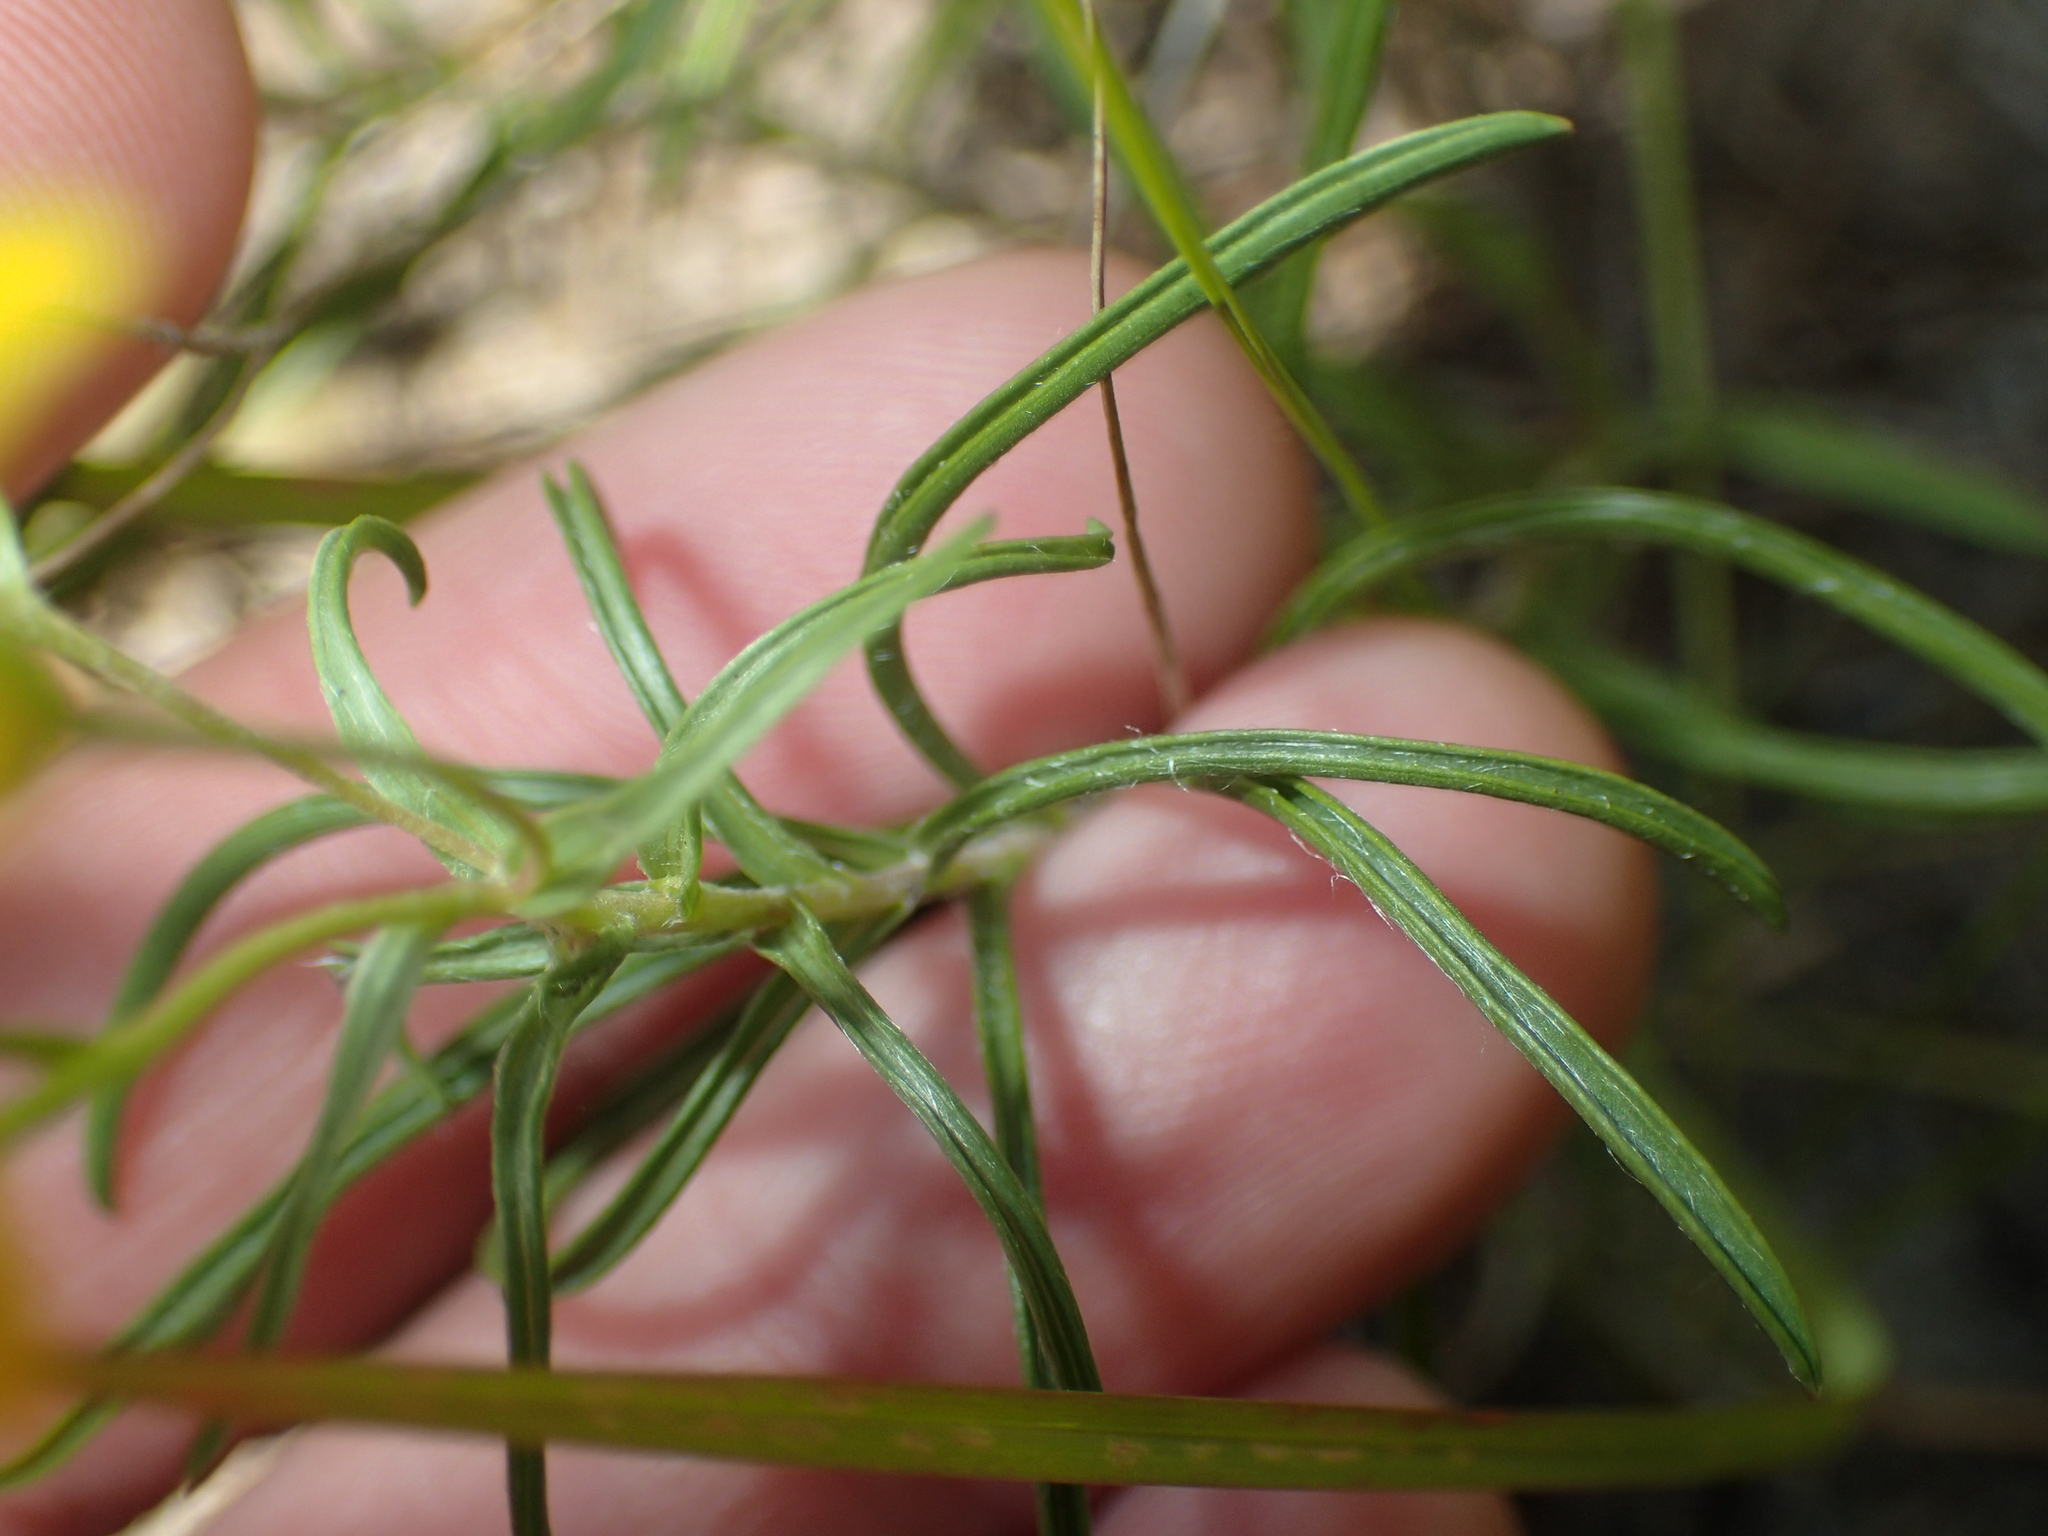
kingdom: Plantae
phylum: Tracheophyta
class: Magnoliopsida
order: Asterales
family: Asteraceae
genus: Pityopsis
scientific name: Pityopsis falcata
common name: Sickle-leaved goldenaster
